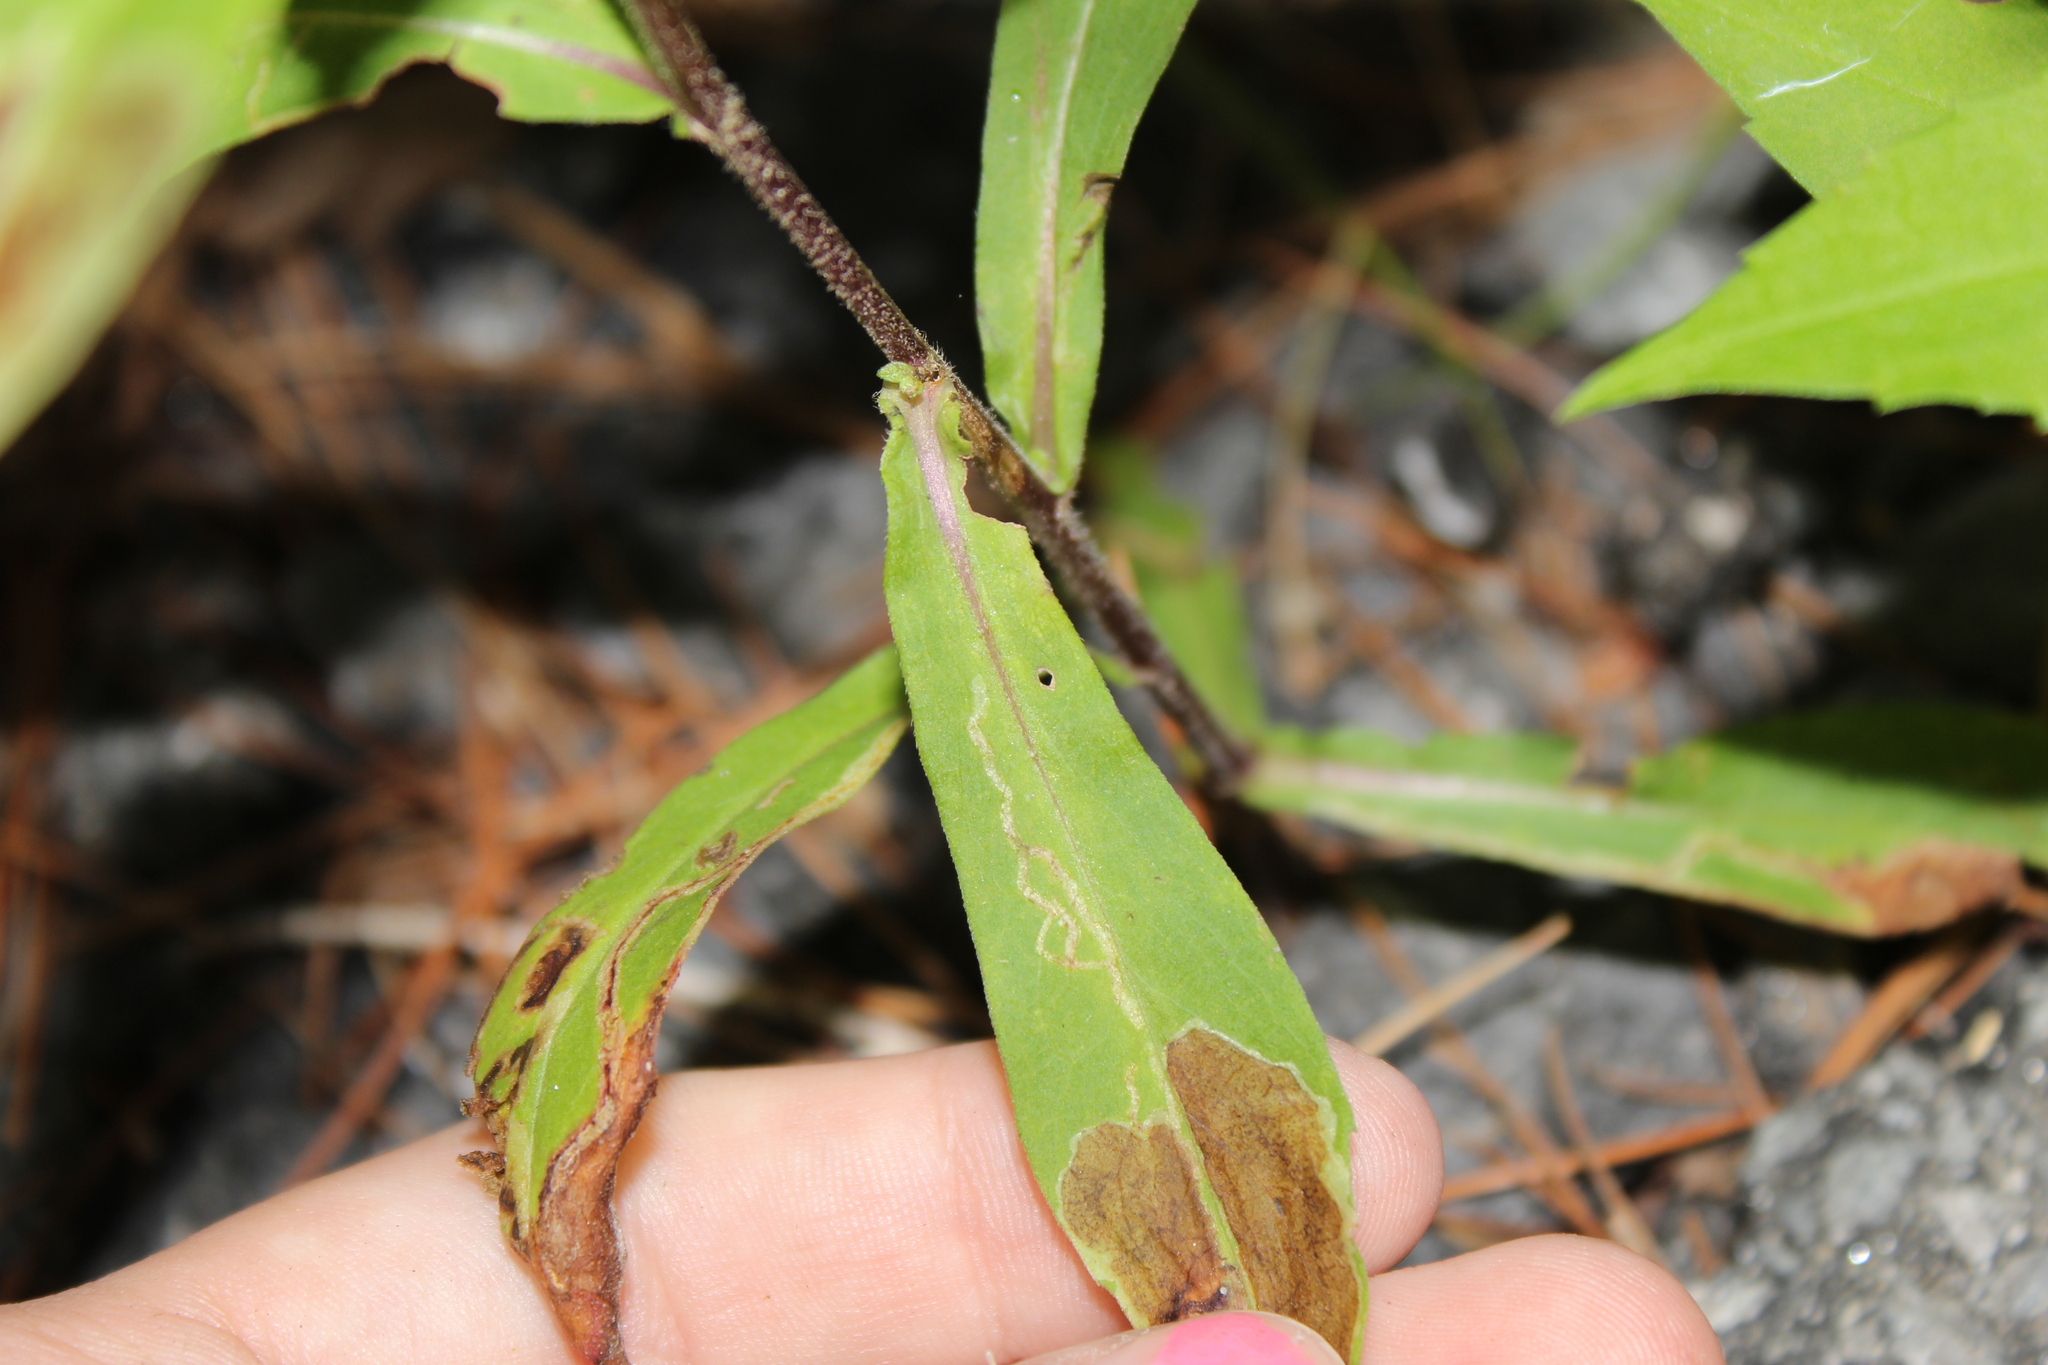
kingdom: Animalia
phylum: Arthropoda
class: Insecta
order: Diptera
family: Agromyzidae
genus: Ophiomyia
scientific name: Ophiomyia carolinensis
